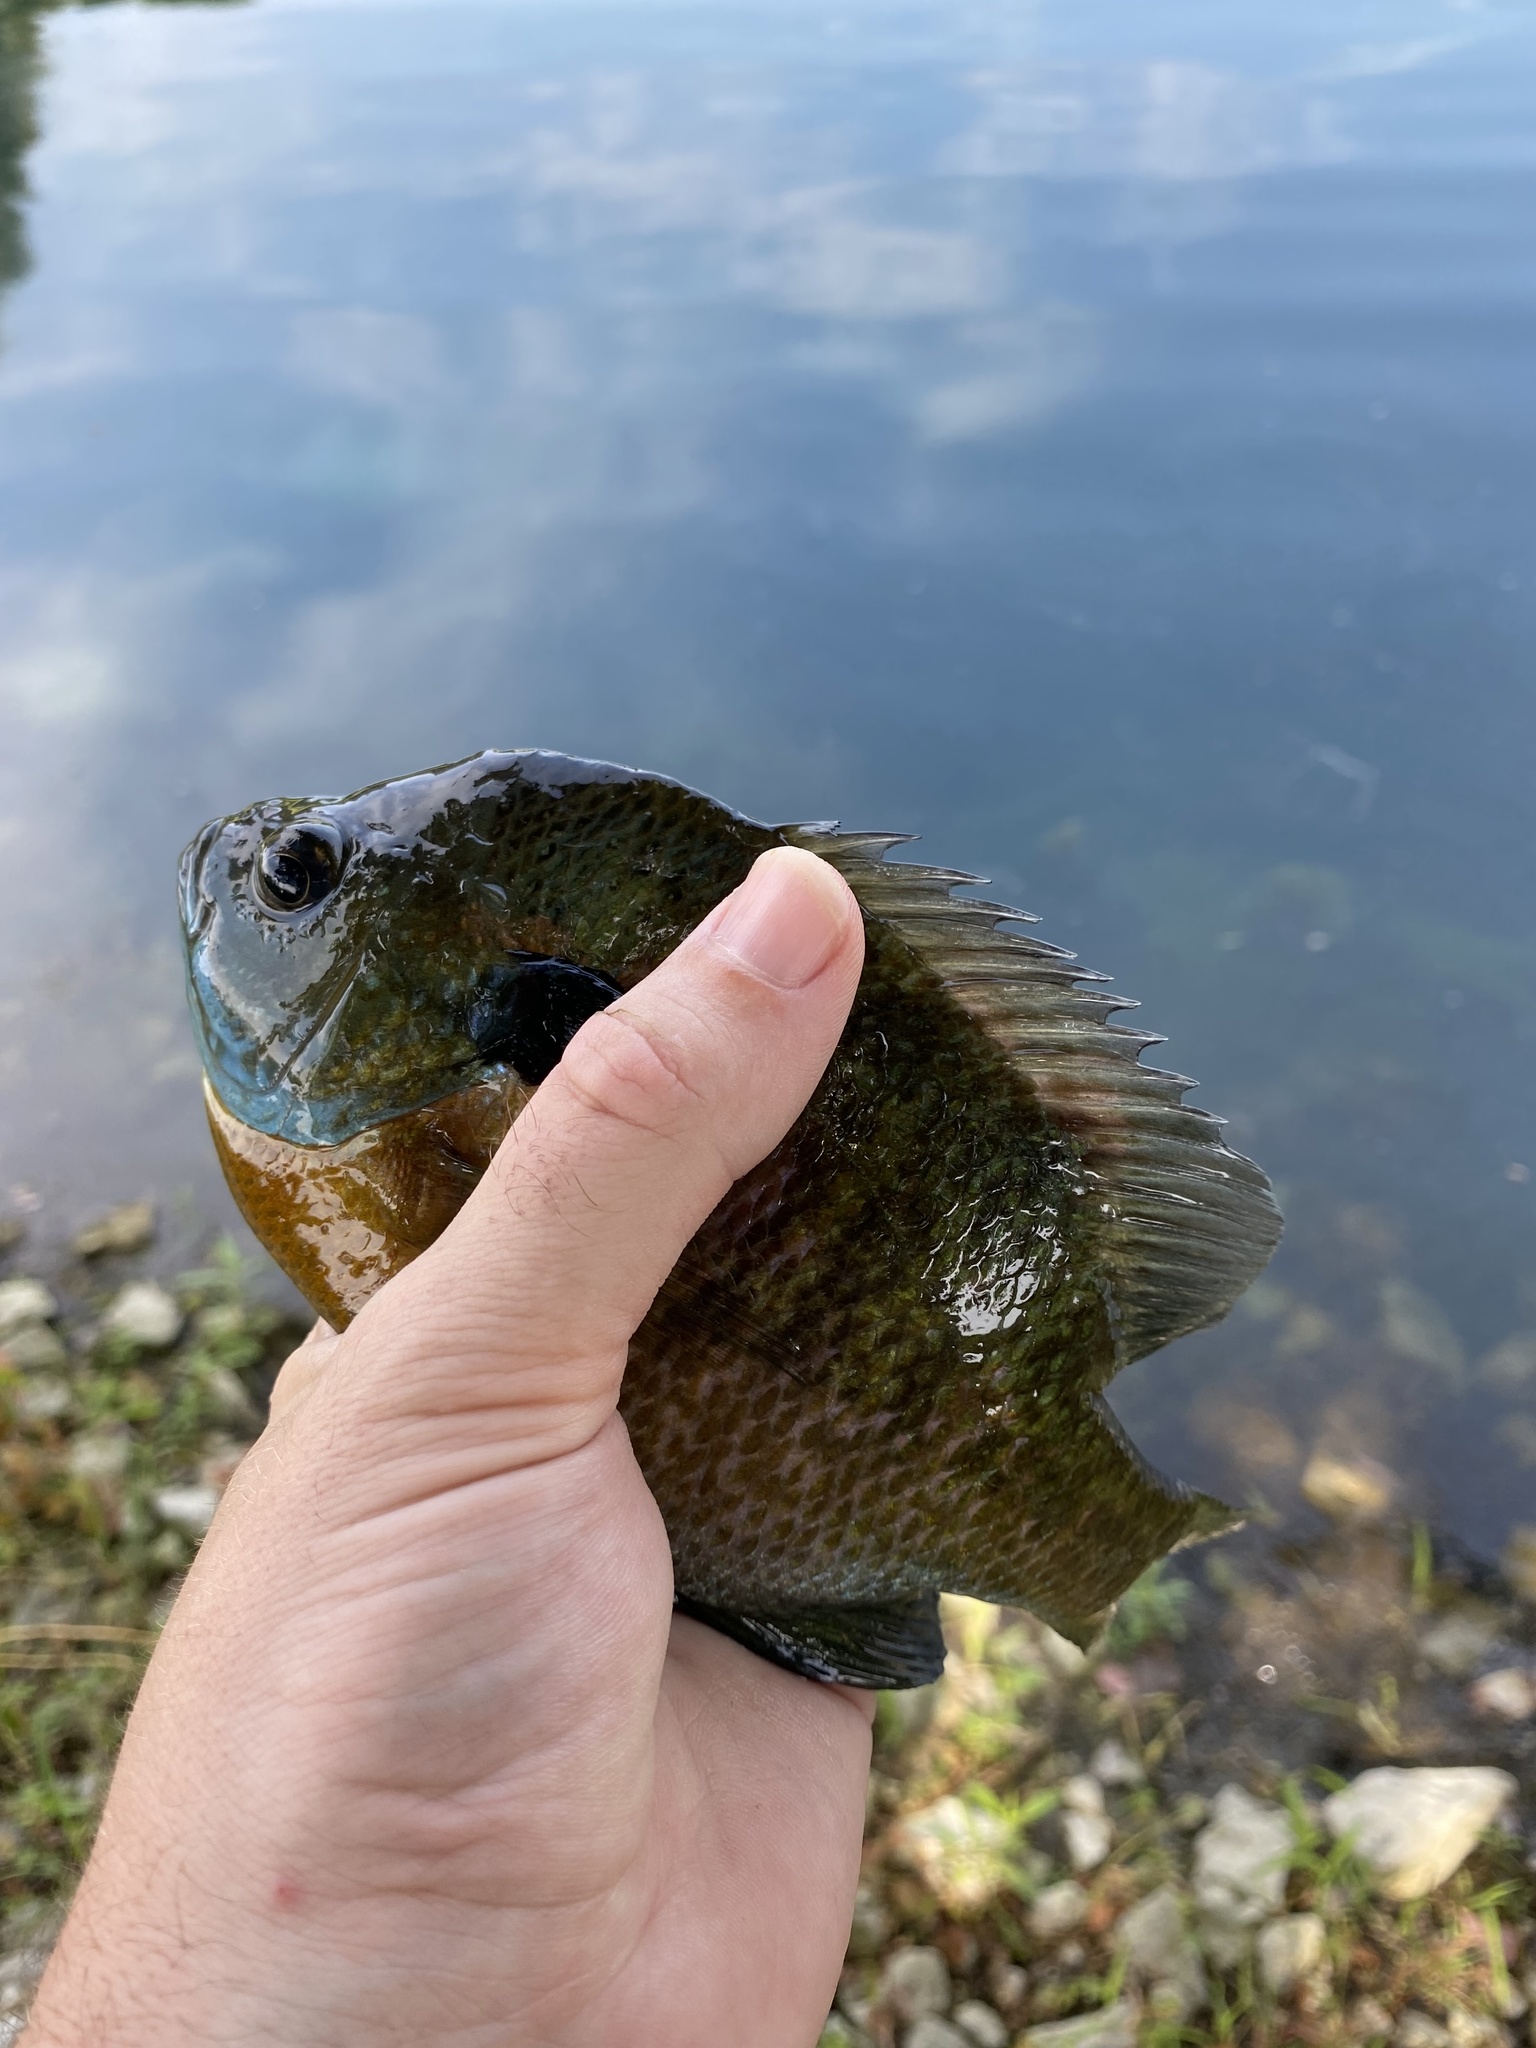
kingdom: Animalia
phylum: Chordata
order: Perciformes
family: Centrarchidae
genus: Lepomis
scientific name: Lepomis macrochirus
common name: Bluegill
